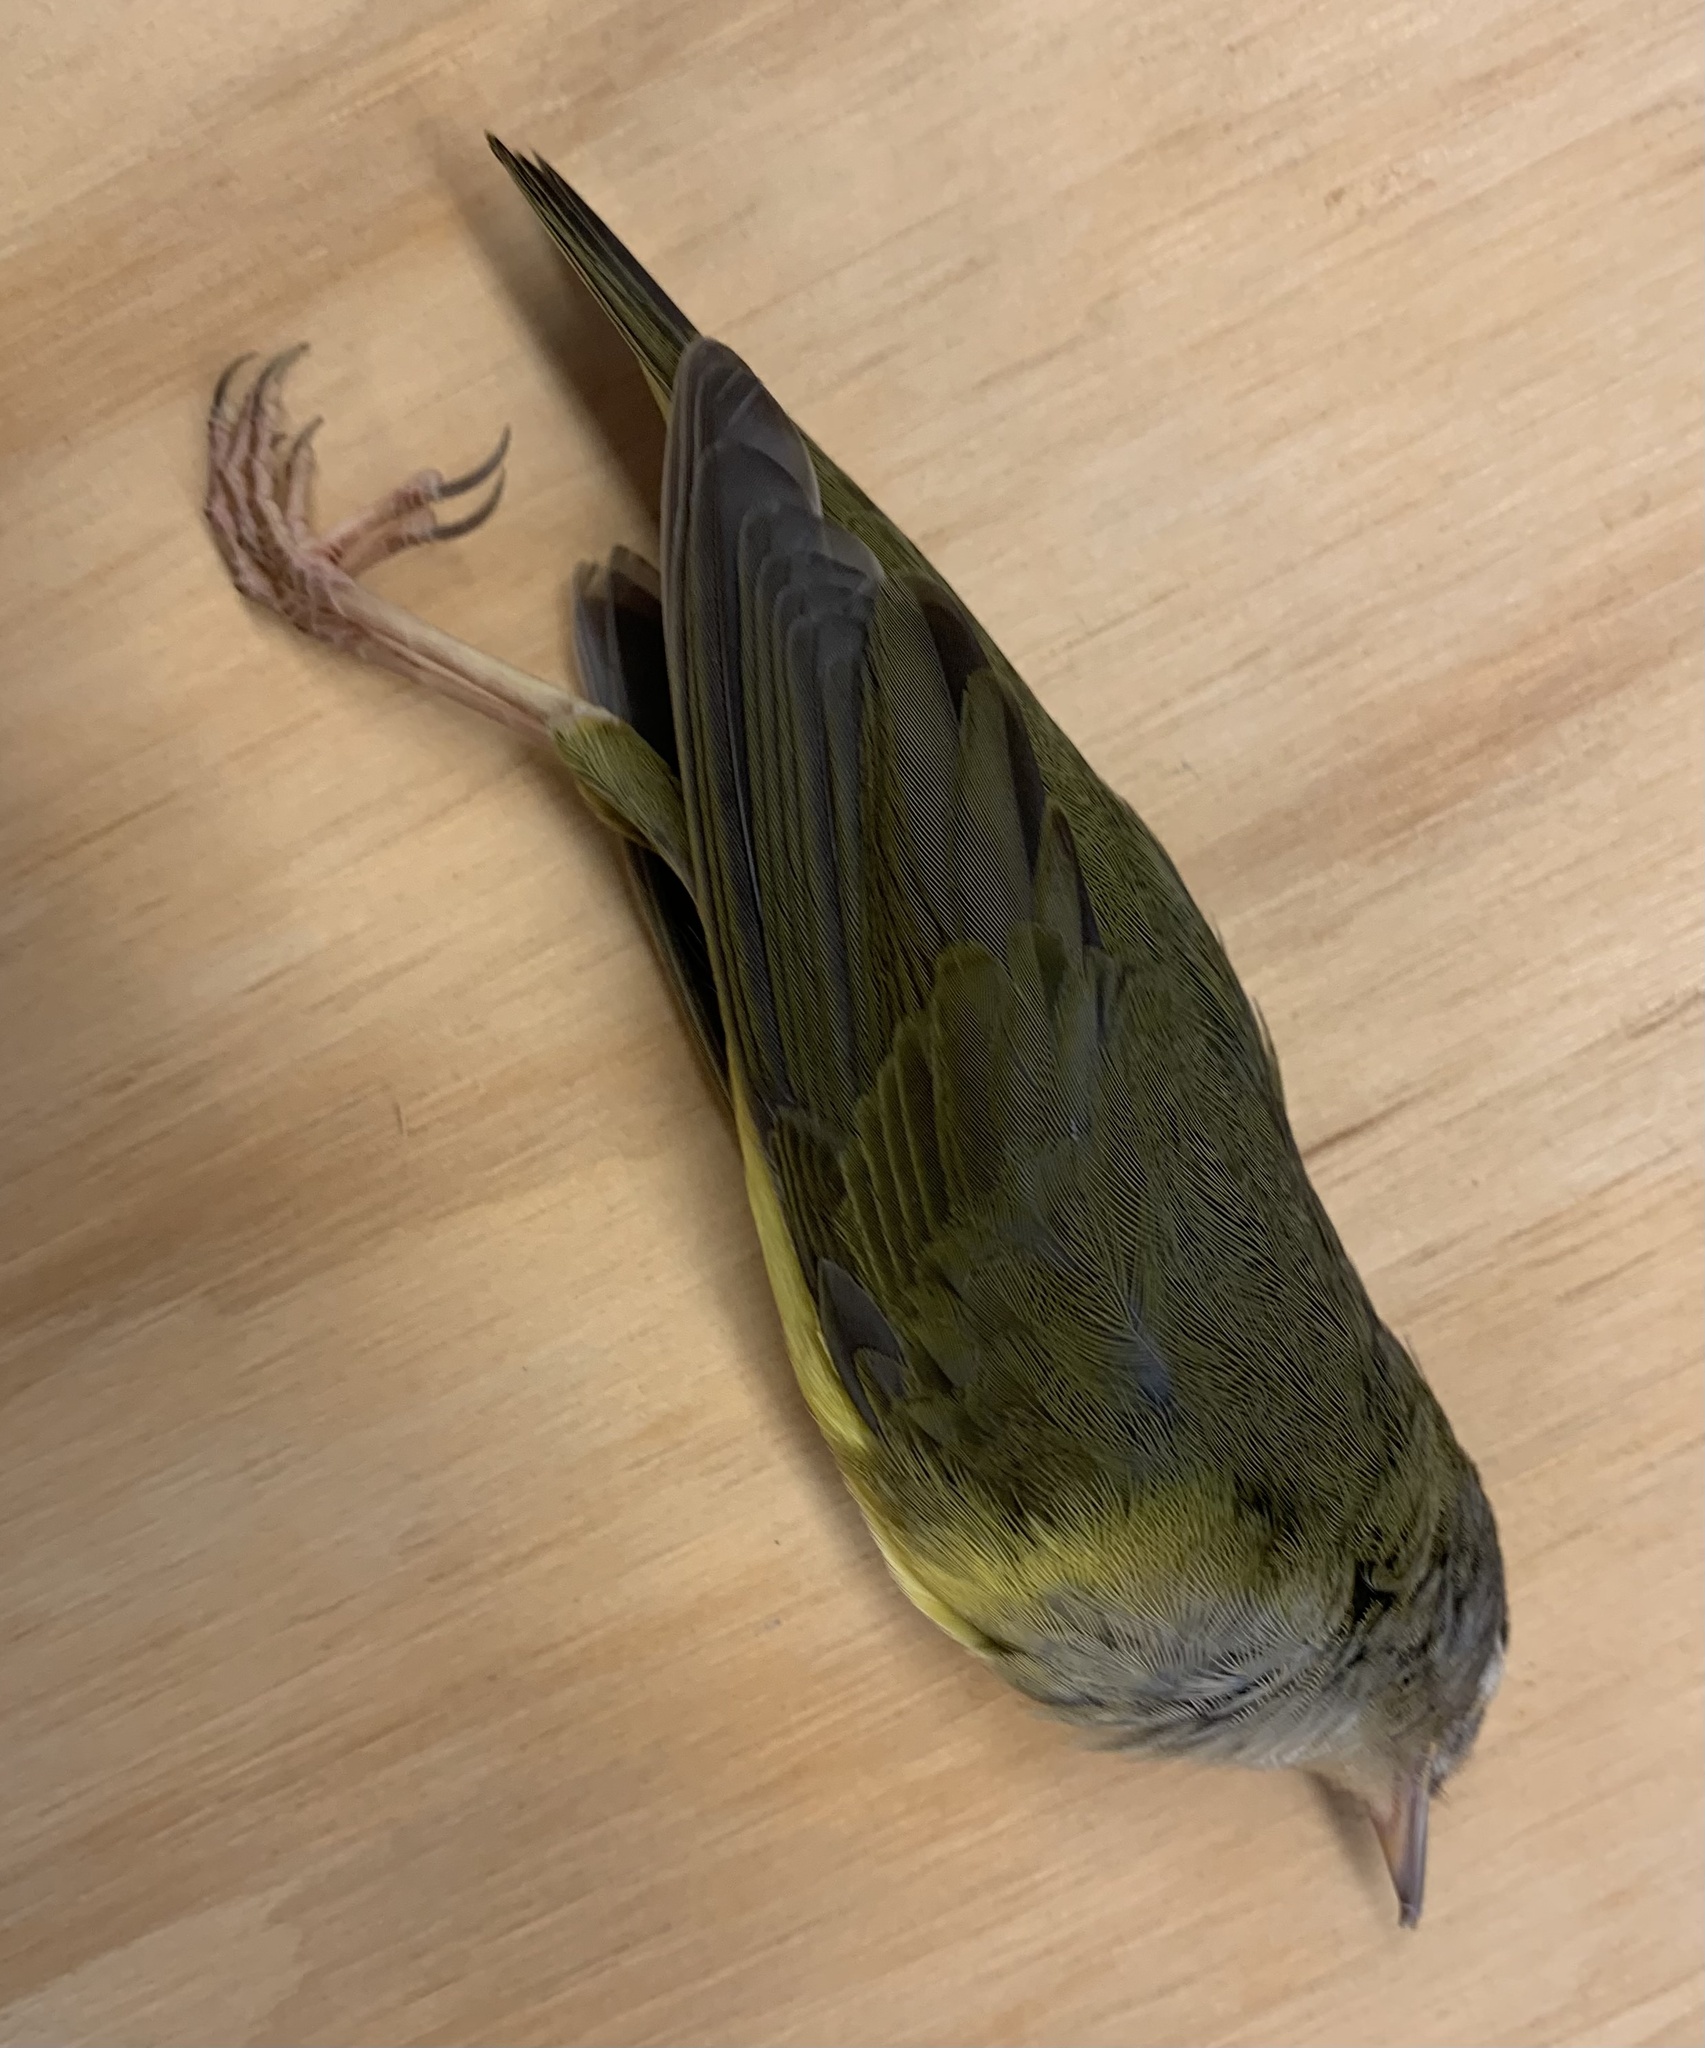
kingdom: Animalia
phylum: Chordata
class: Aves
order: Passeriformes
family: Parulidae
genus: Oporornis
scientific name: Oporornis agilis
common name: Connecticut warbler
